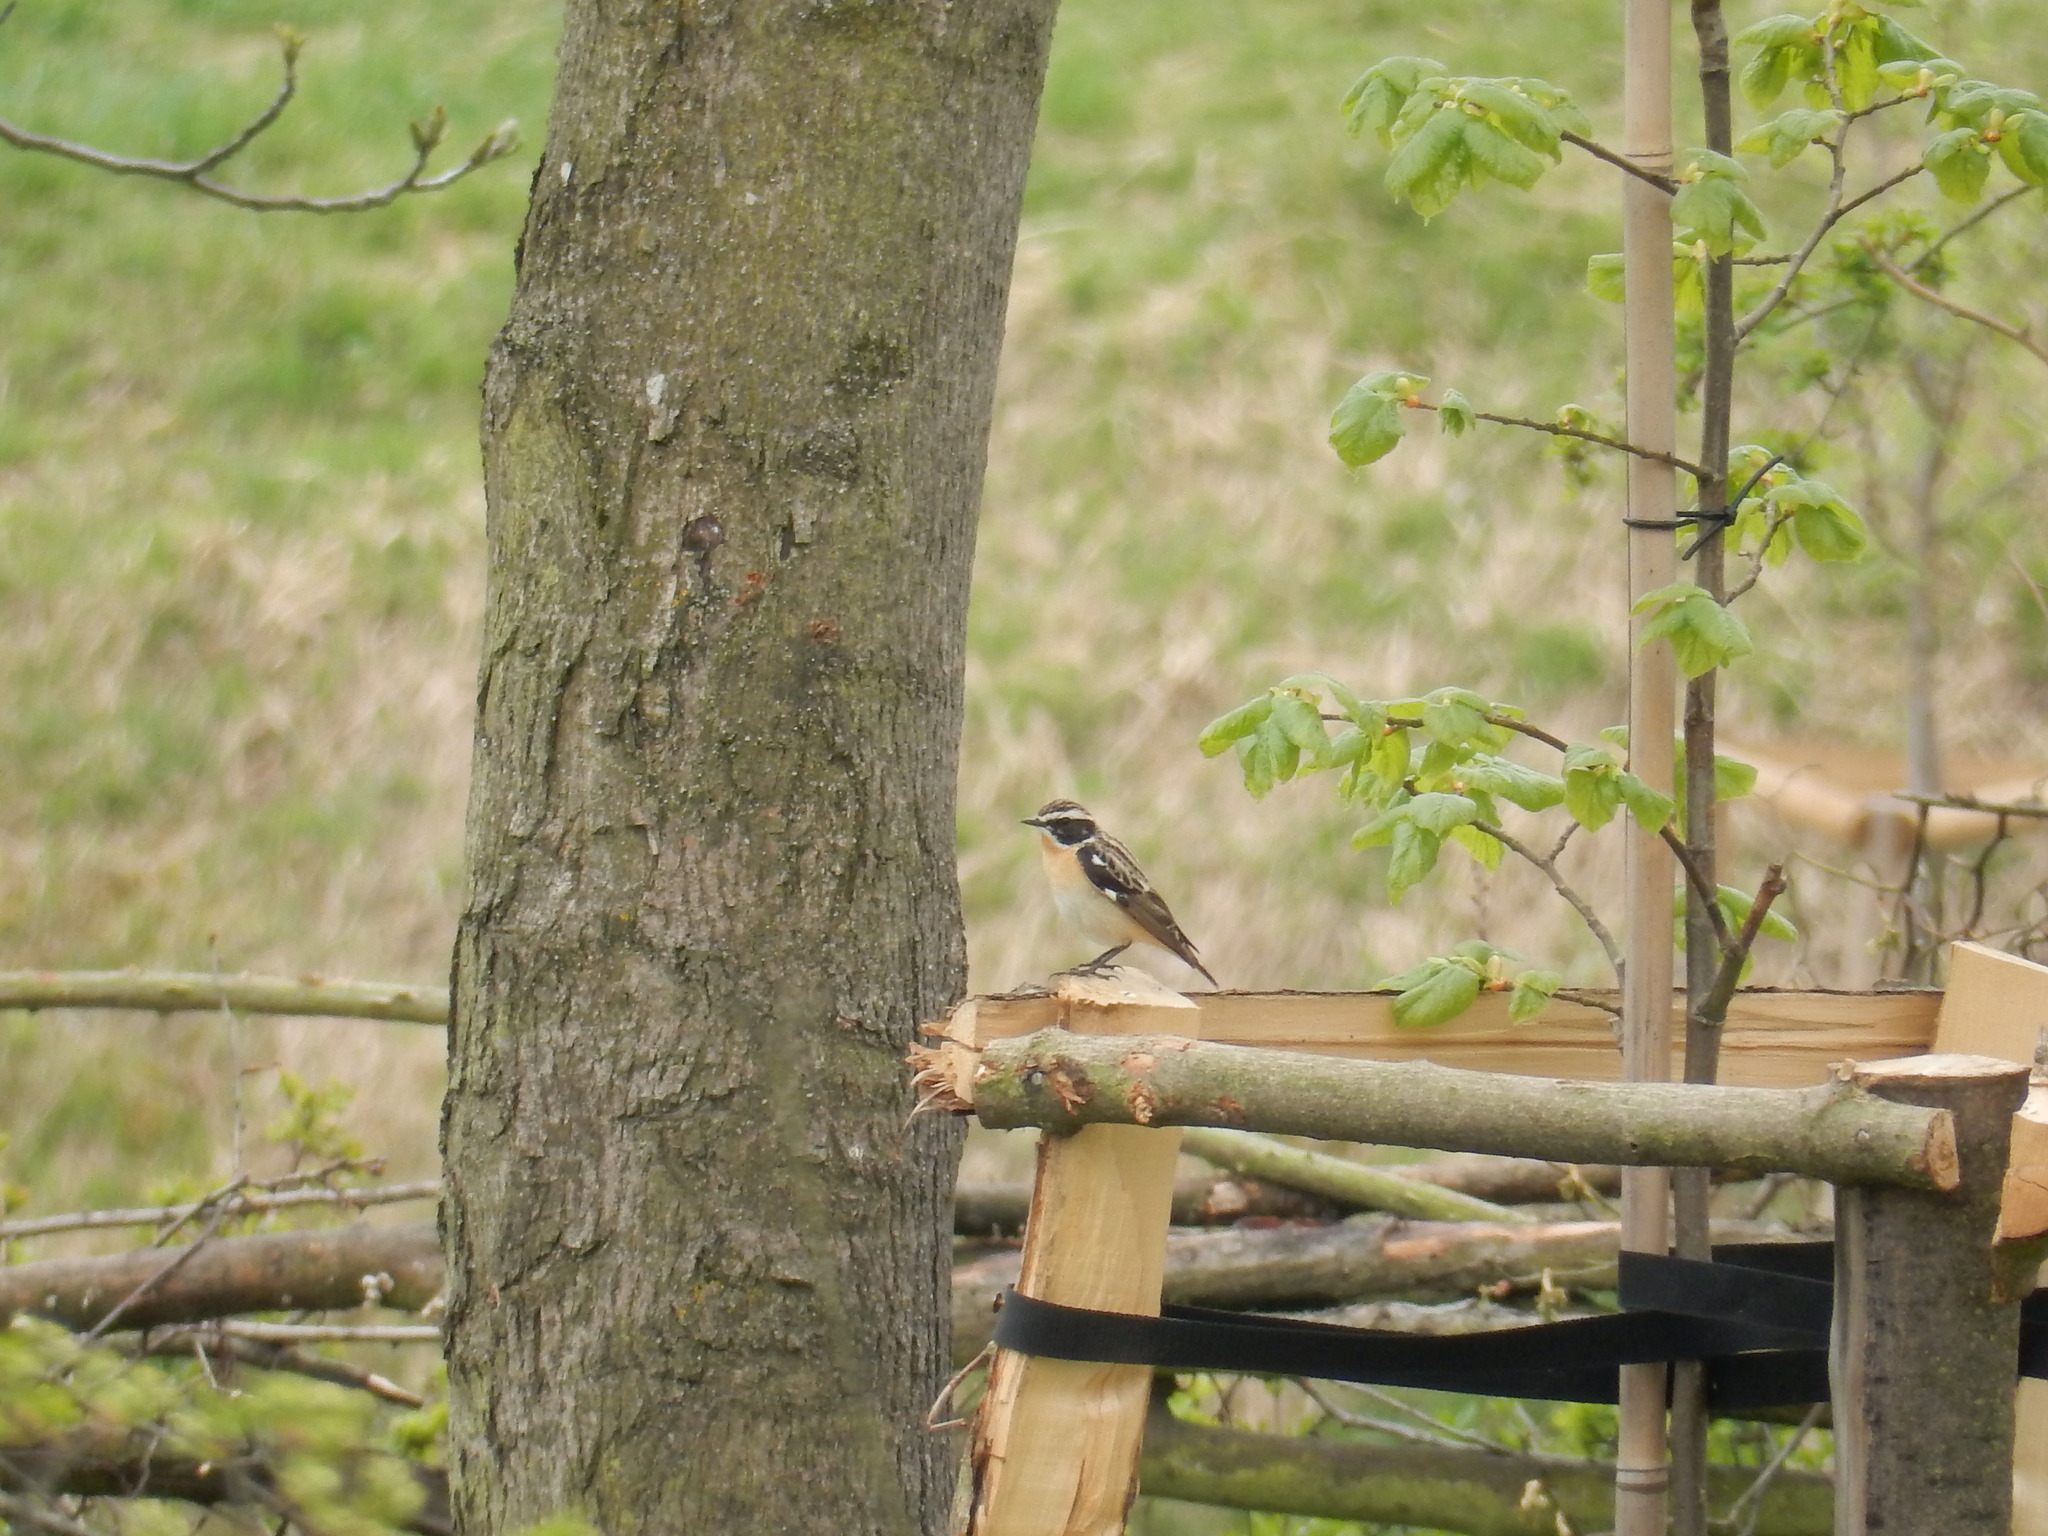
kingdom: Animalia
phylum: Chordata
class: Aves
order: Passeriformes
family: Muscicapidae
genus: Saxicola
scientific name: Saxicola rubetra
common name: Whinchat
